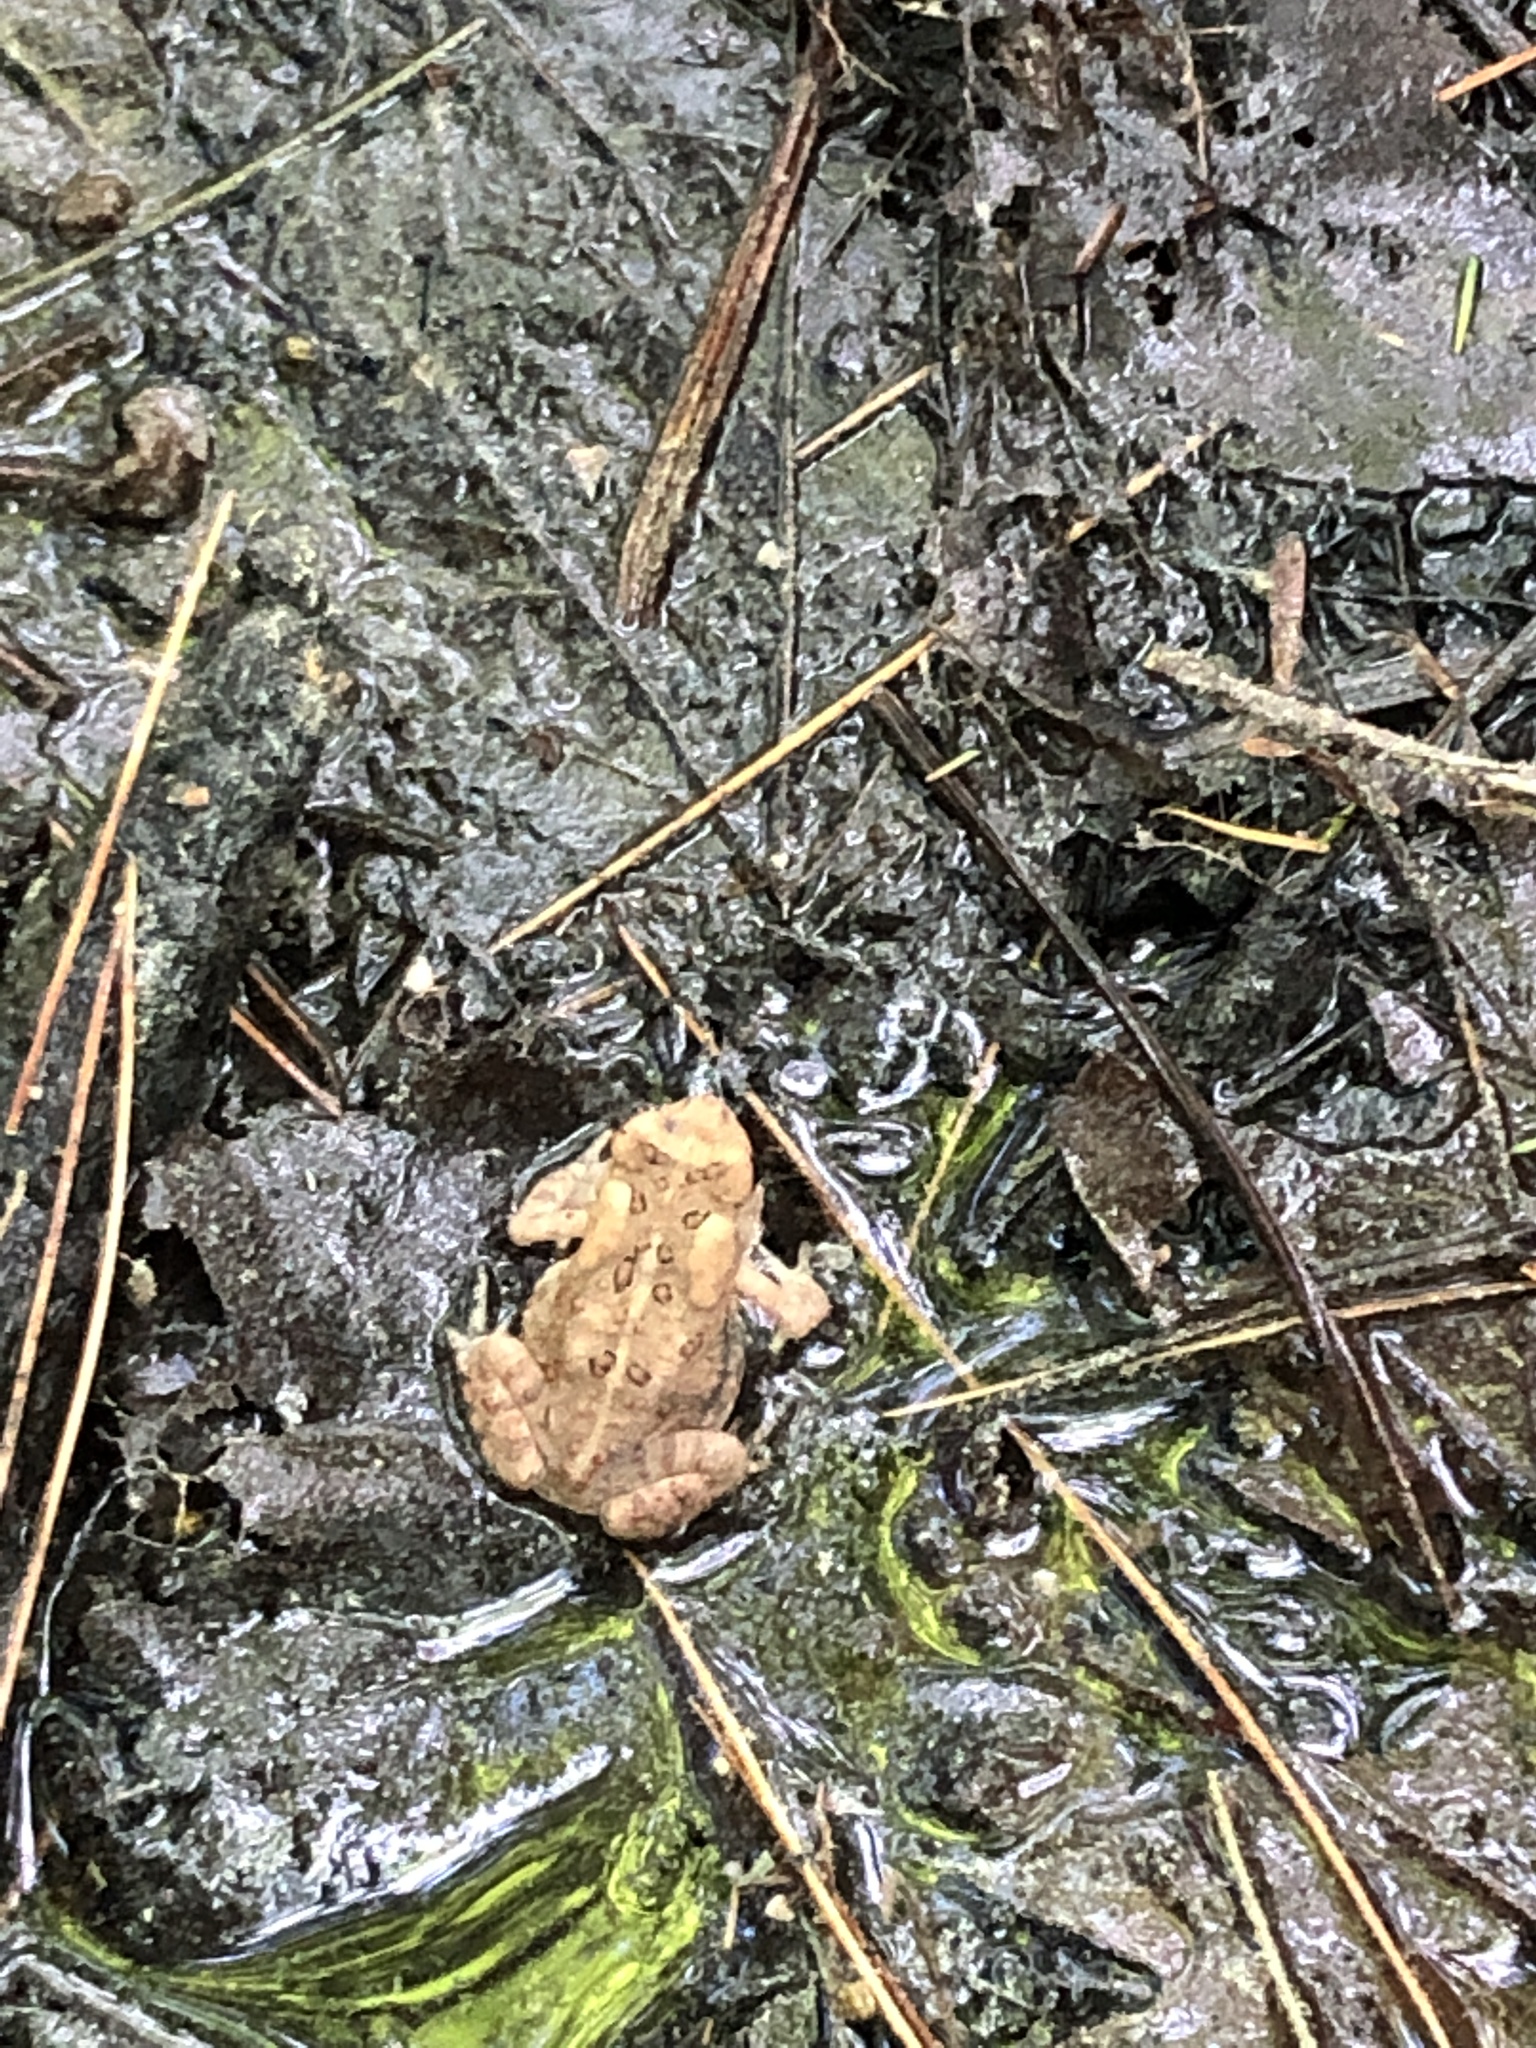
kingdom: Animalia
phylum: Chordata
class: Amphibia
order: Anura
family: Bufonidae
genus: Anaxyrus
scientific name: Anaxyrus americanus
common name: American toad
